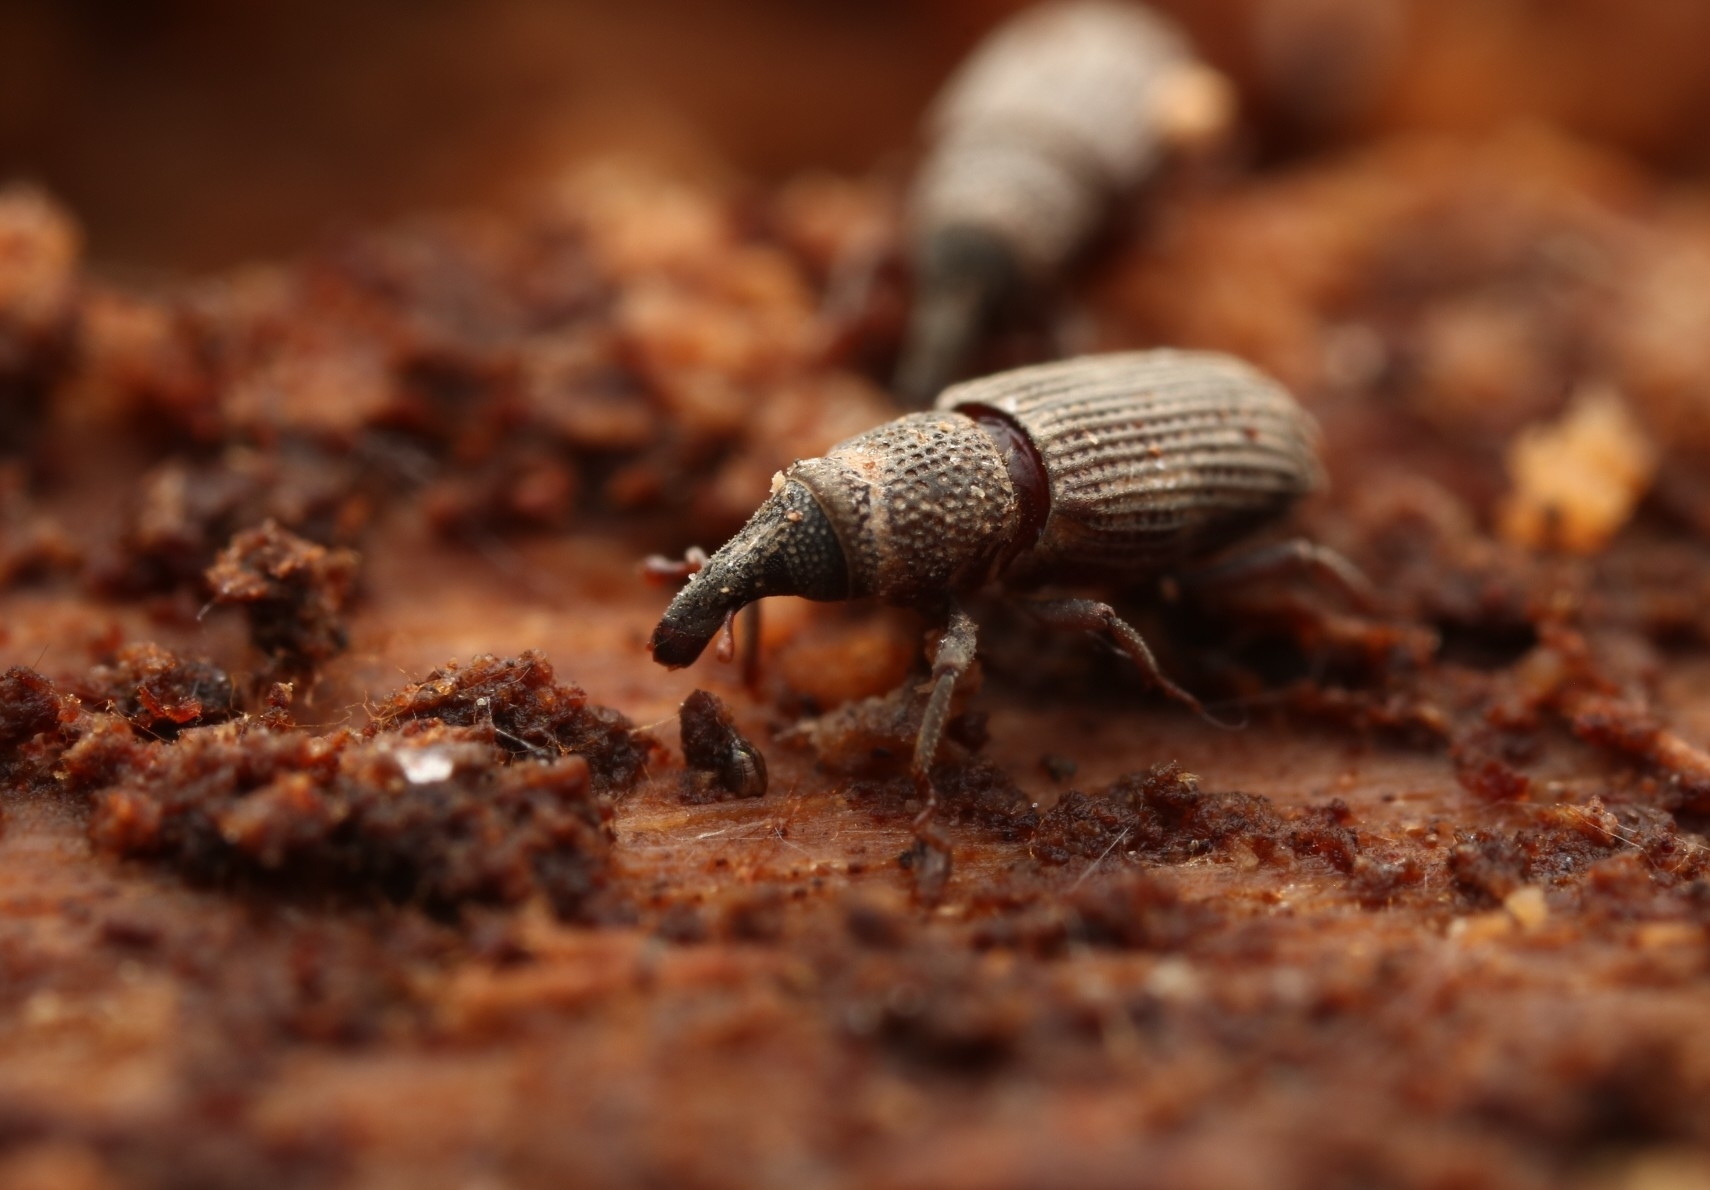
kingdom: Animalia
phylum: Arthropoda
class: Insecta
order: Coleoptera
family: Dryophthoridae
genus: Dryophthorus
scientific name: Dryophthorus americanus
